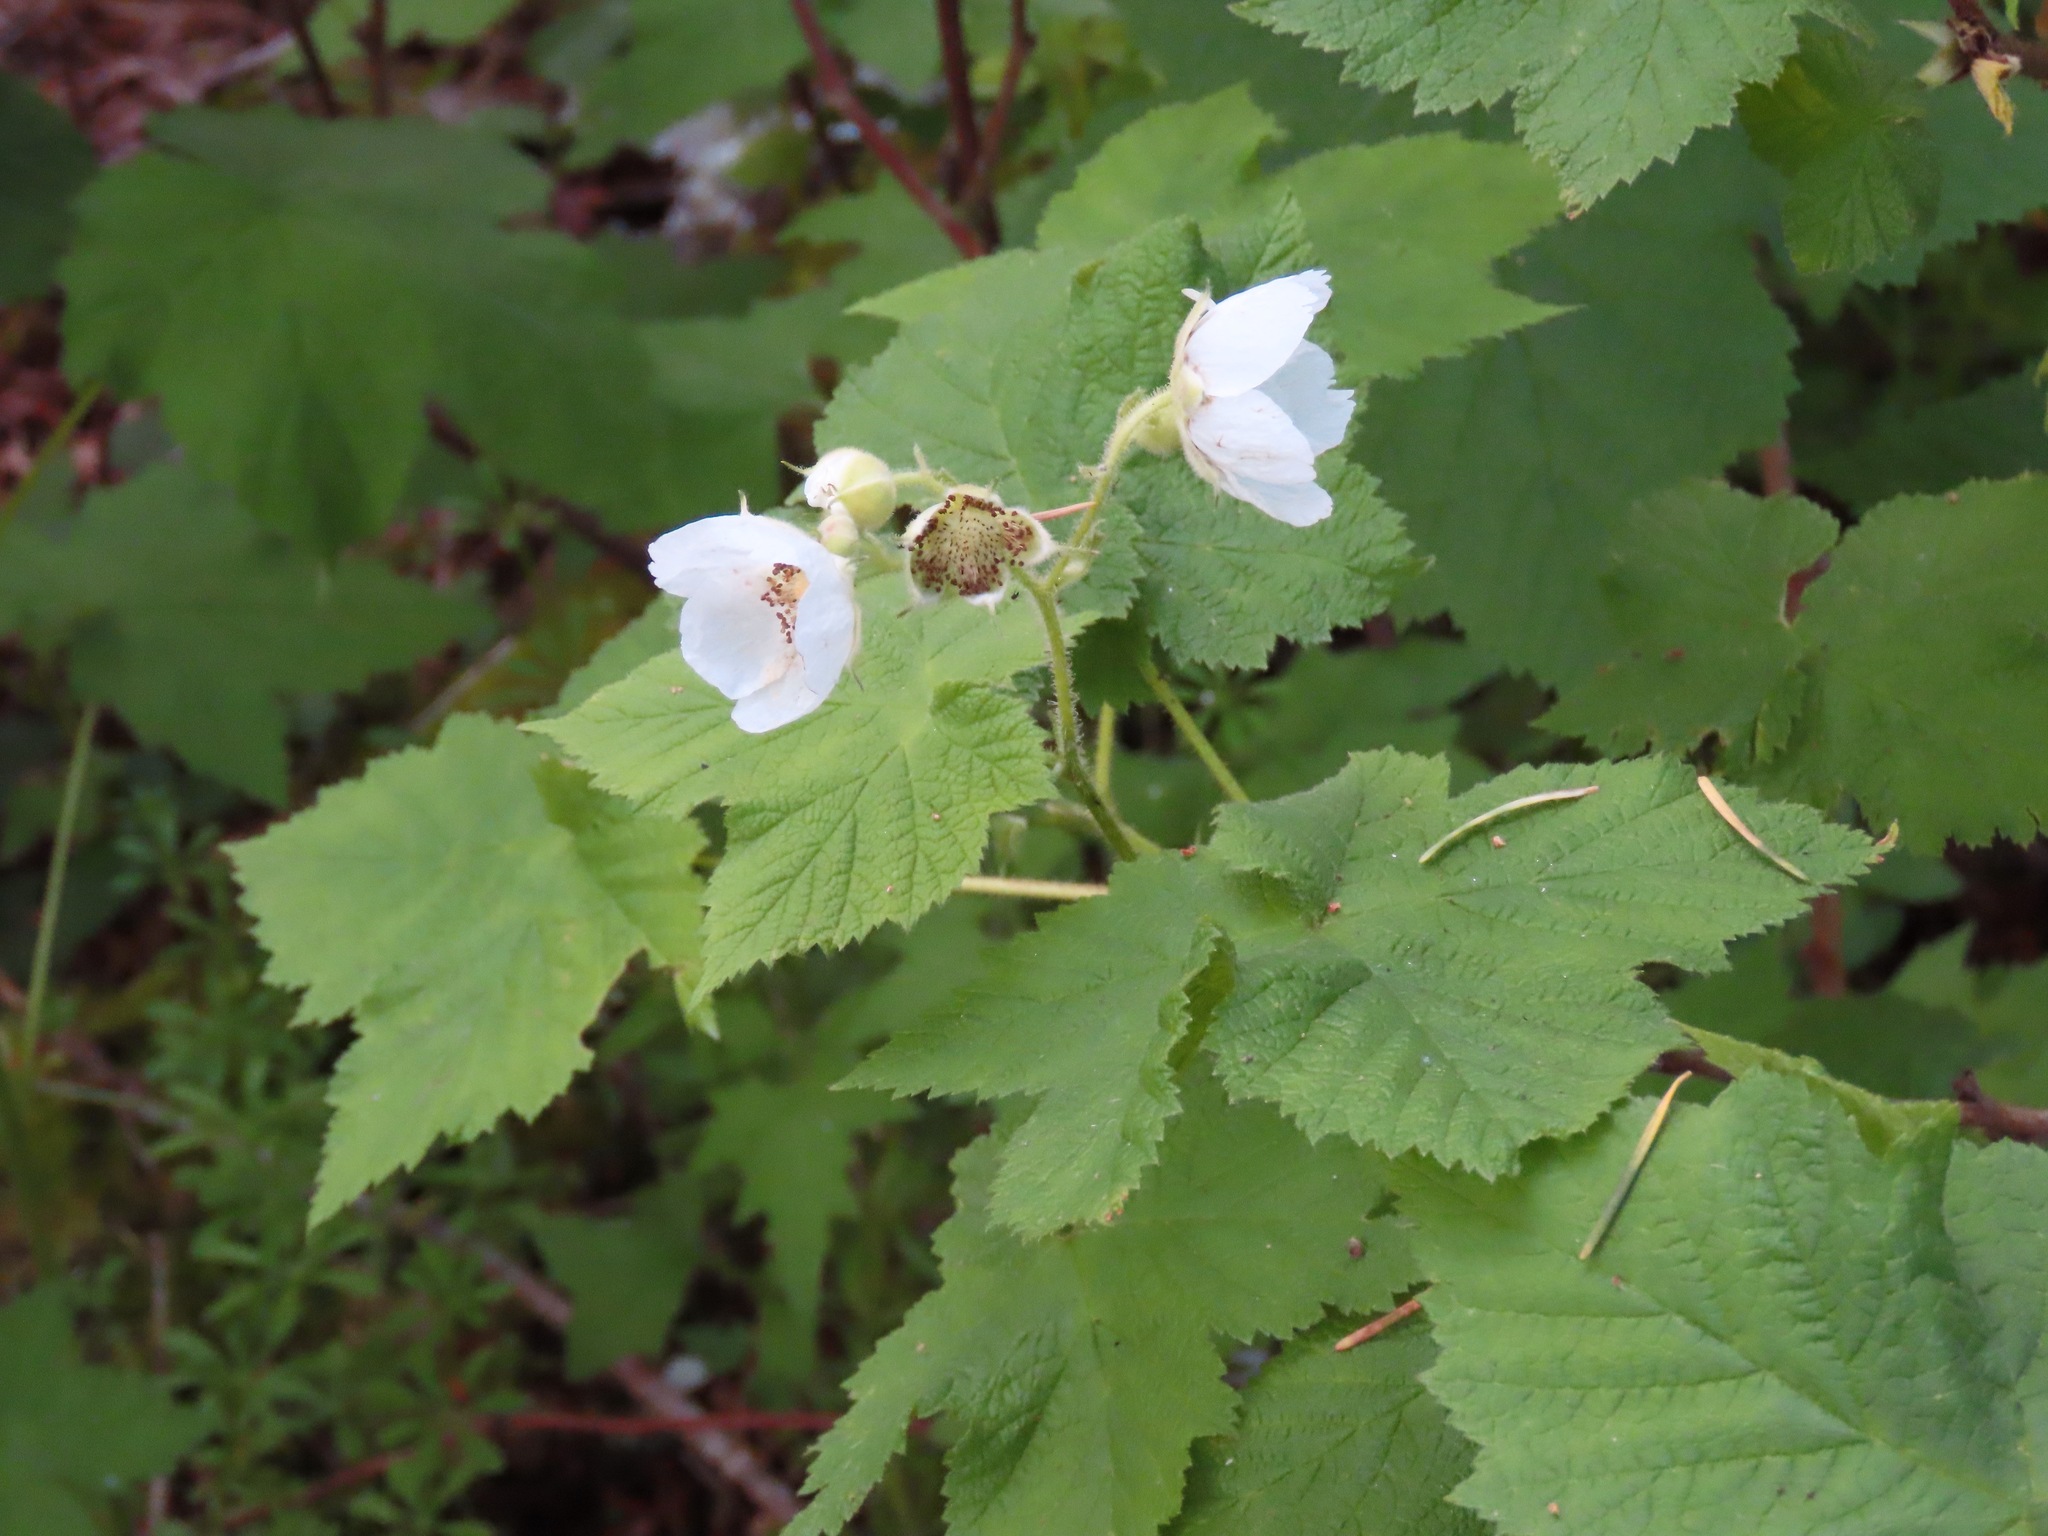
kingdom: Plantae
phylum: Tracheophyta
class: Magnoliopsida
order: Rosales
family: Rosaceae
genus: Rubus
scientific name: Rubus parviflorus
